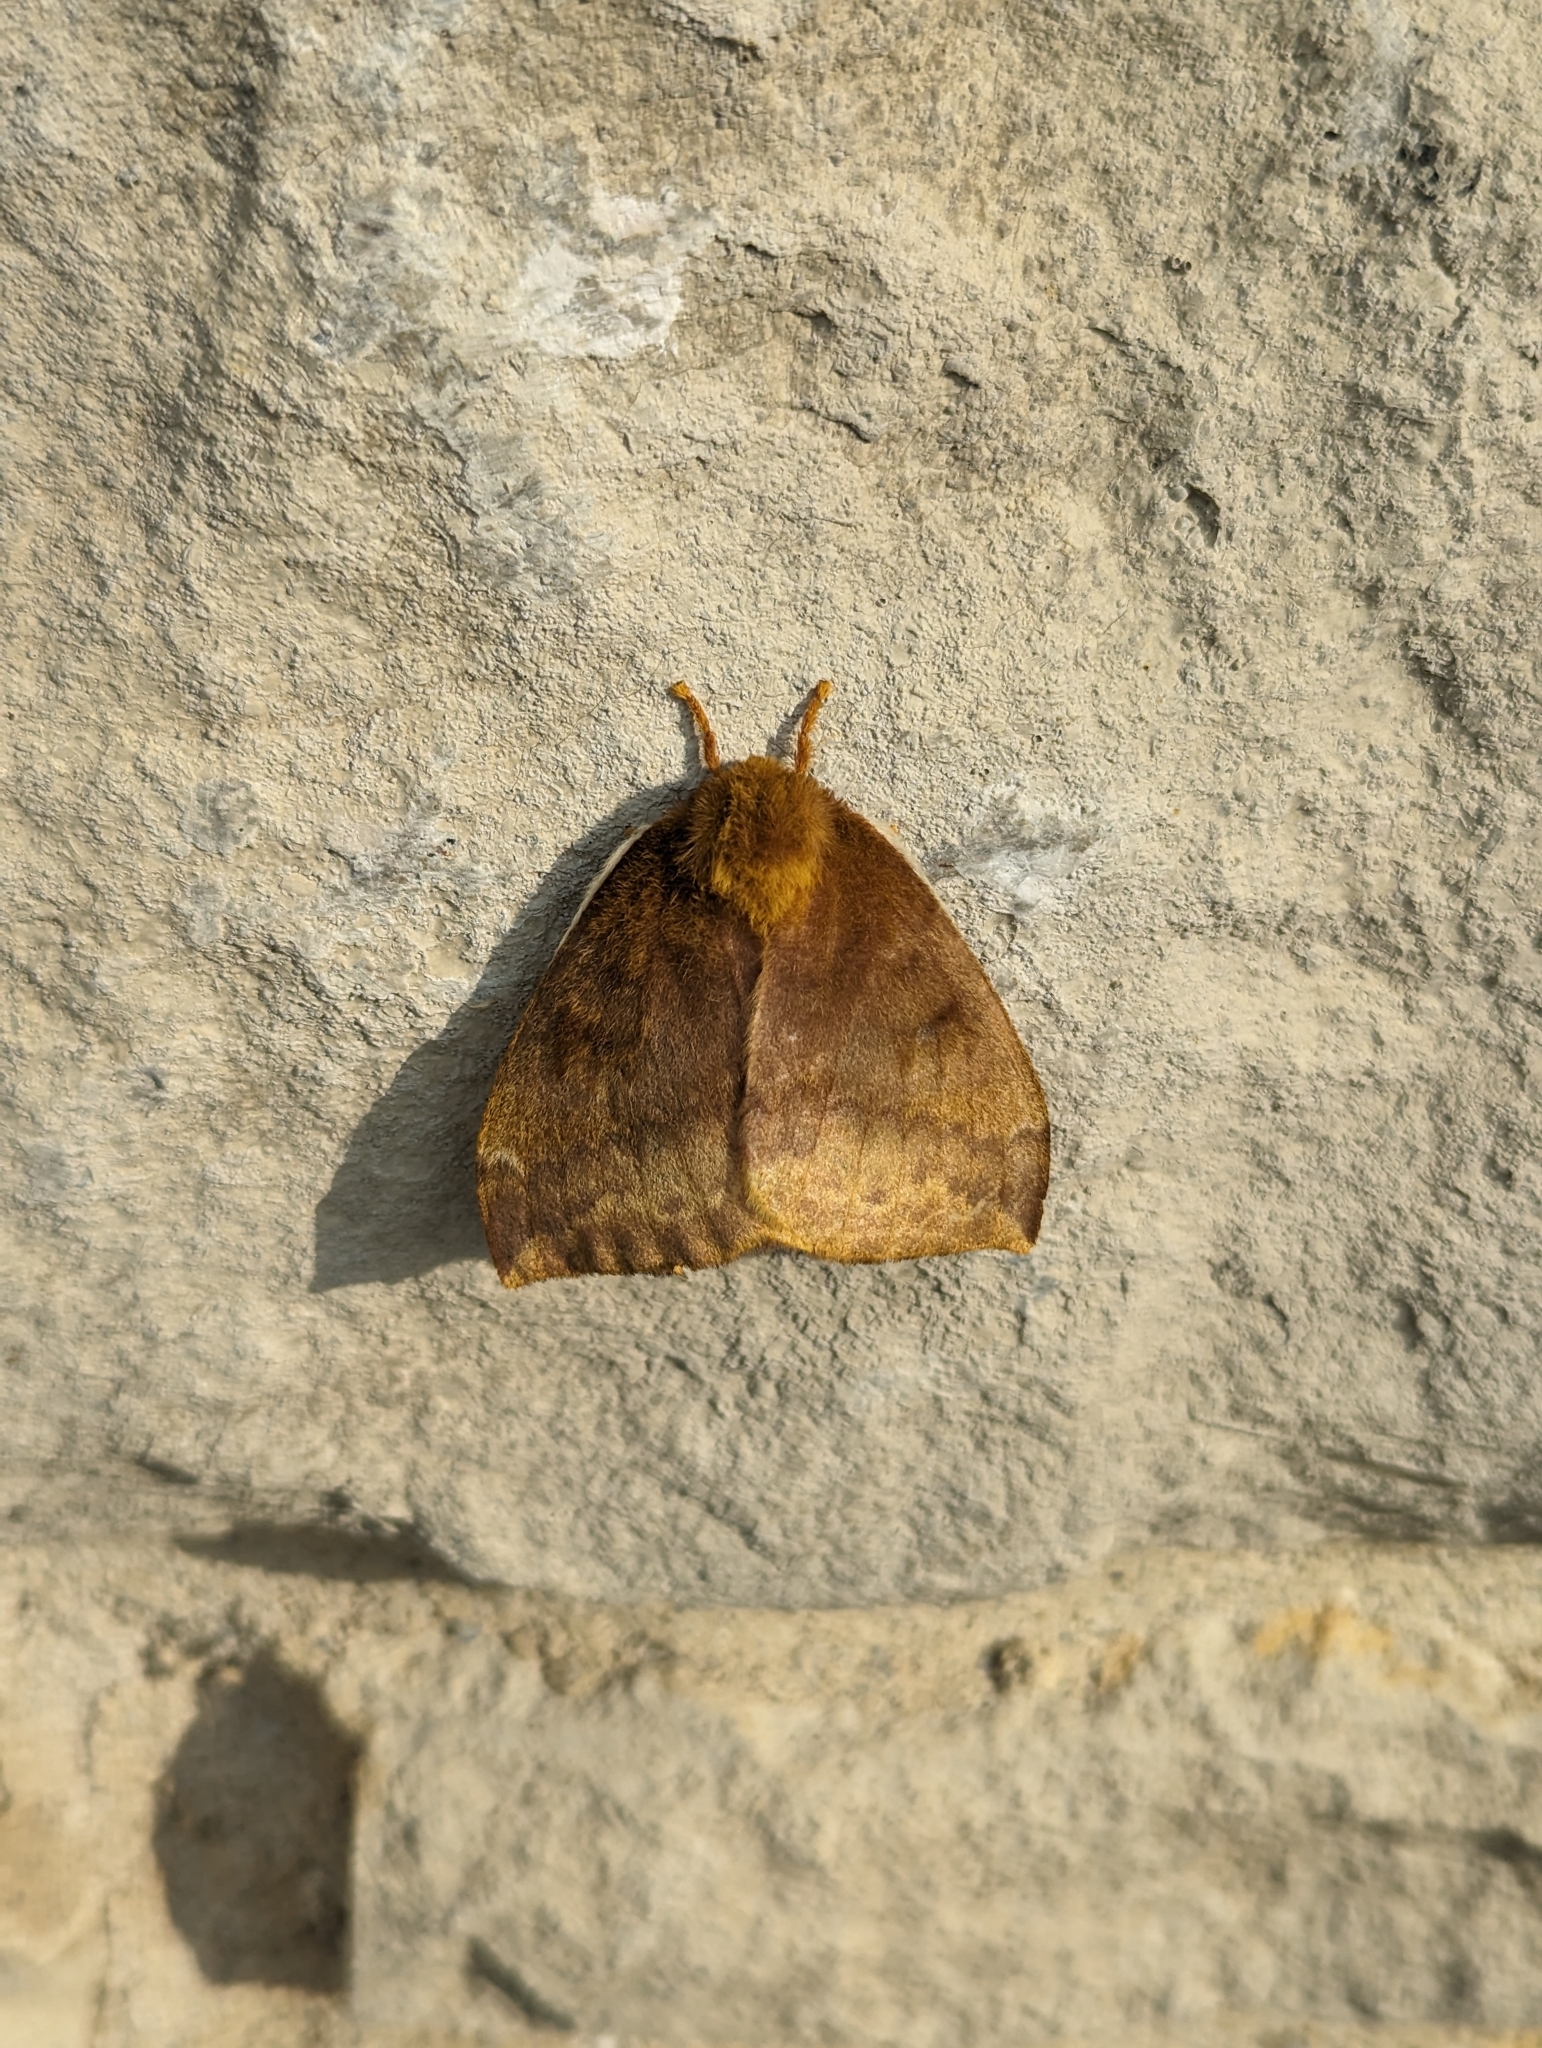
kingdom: Animalia
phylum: Arthropoda
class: Insecta
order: Lepidoptera
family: Saturniidae
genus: Automeris
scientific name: Automeris io
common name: Io moth
